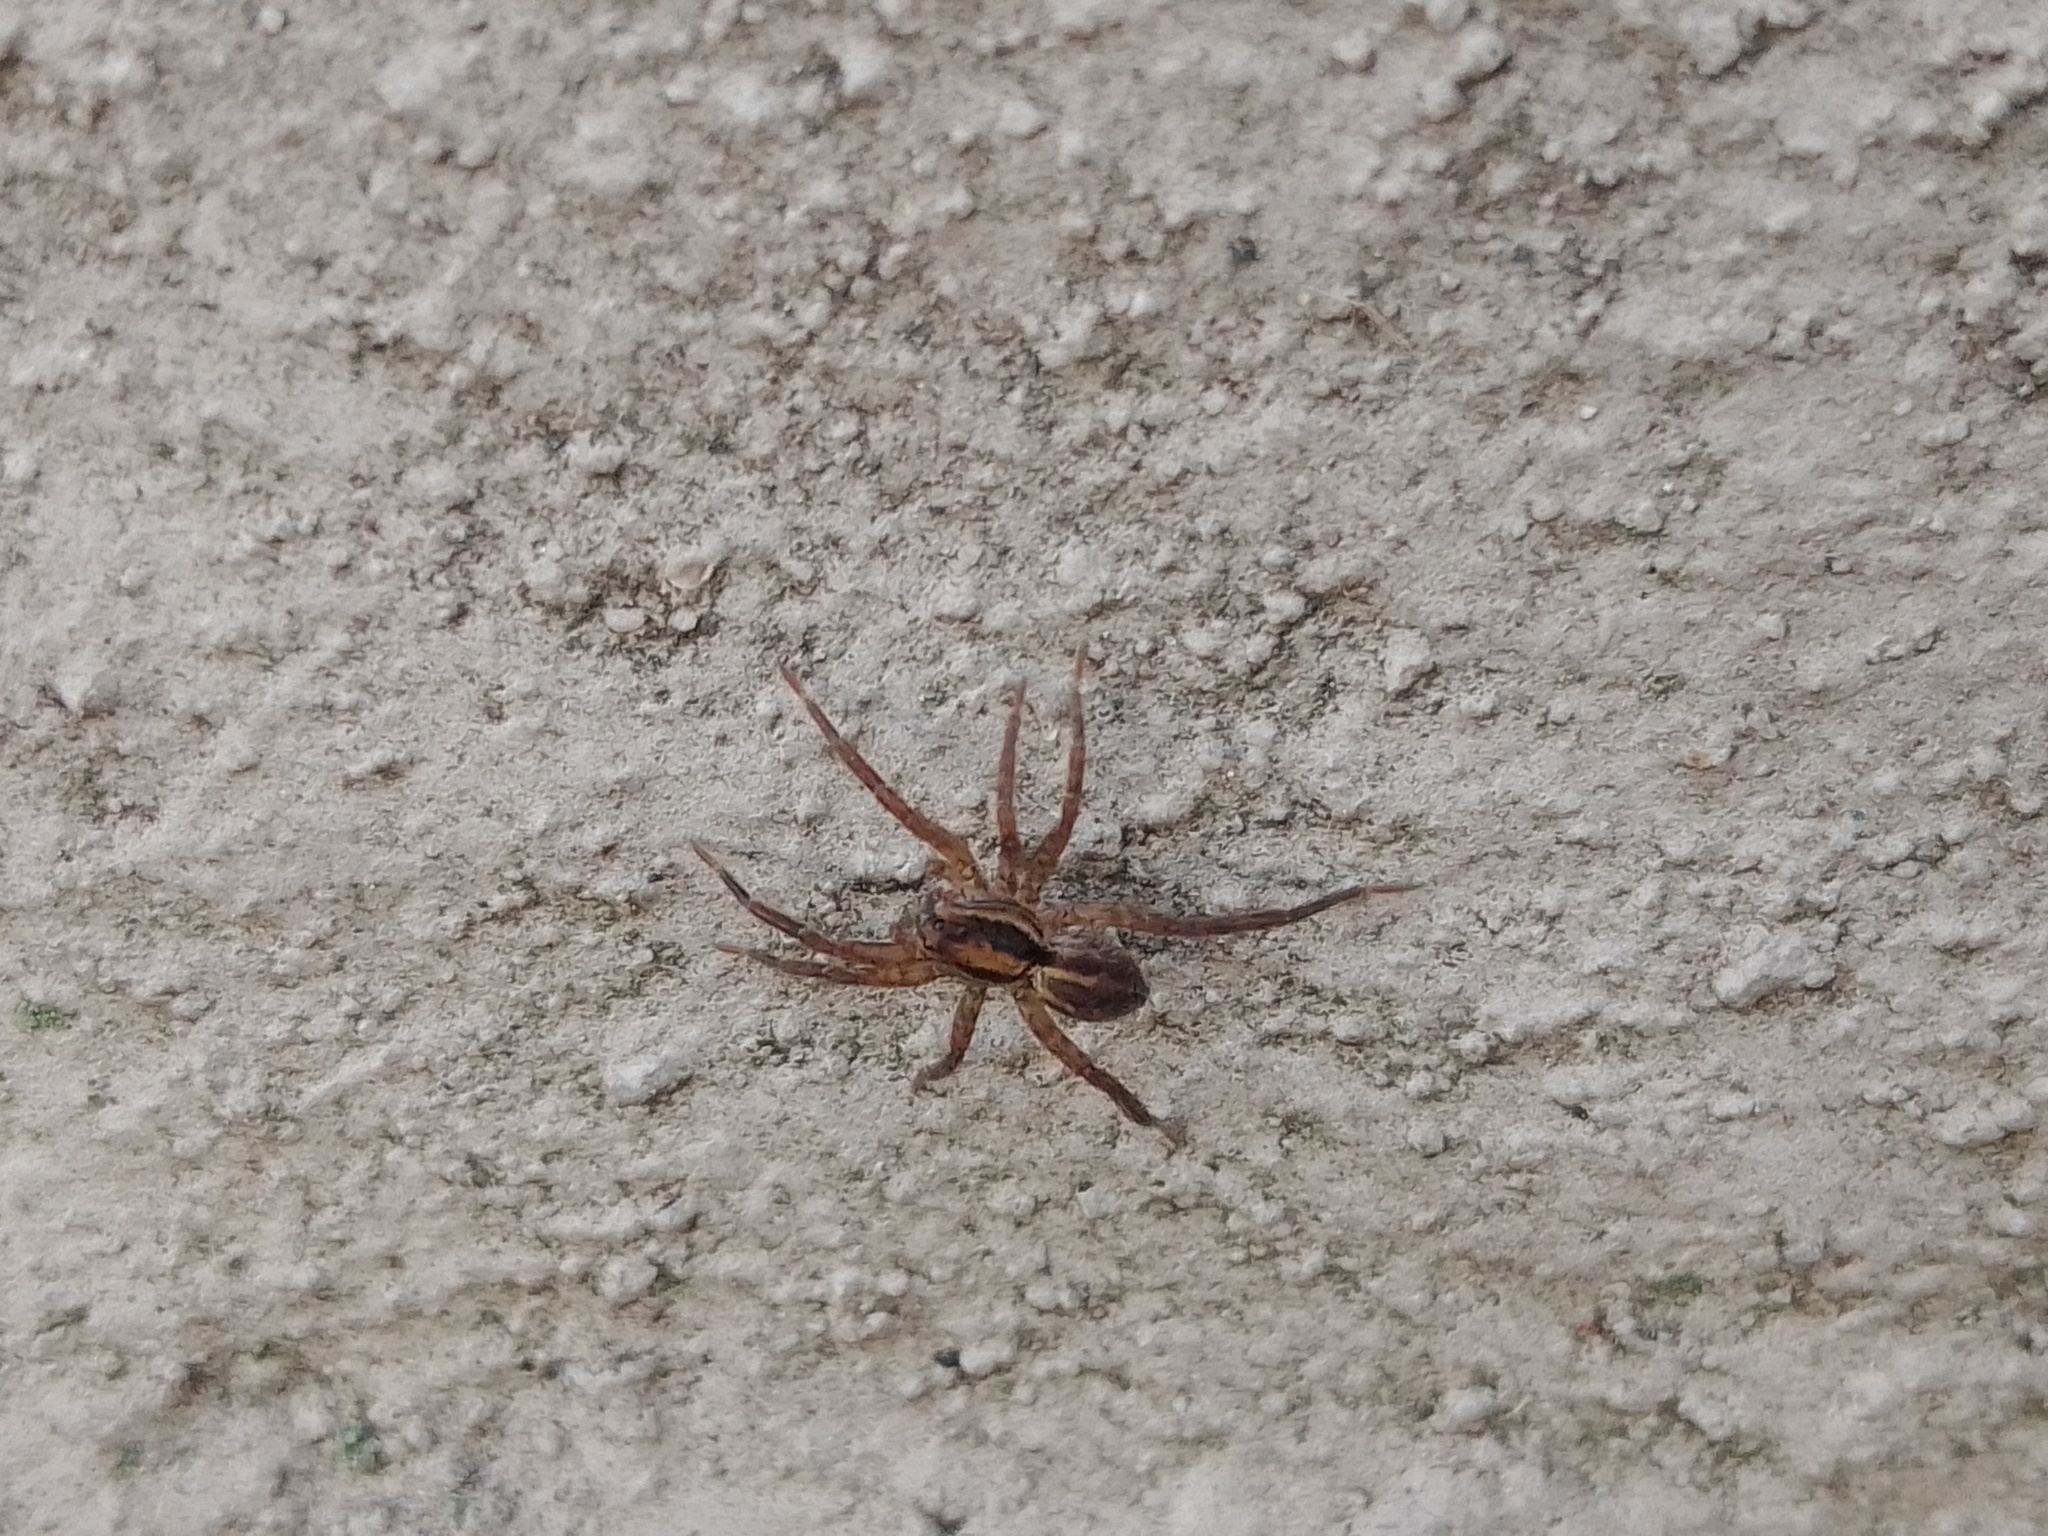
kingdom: Animalia
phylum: Arthropoda
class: Arachnida
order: Araneae
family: Lycosidae
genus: Alopecosa
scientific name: Alopecosa moesta
